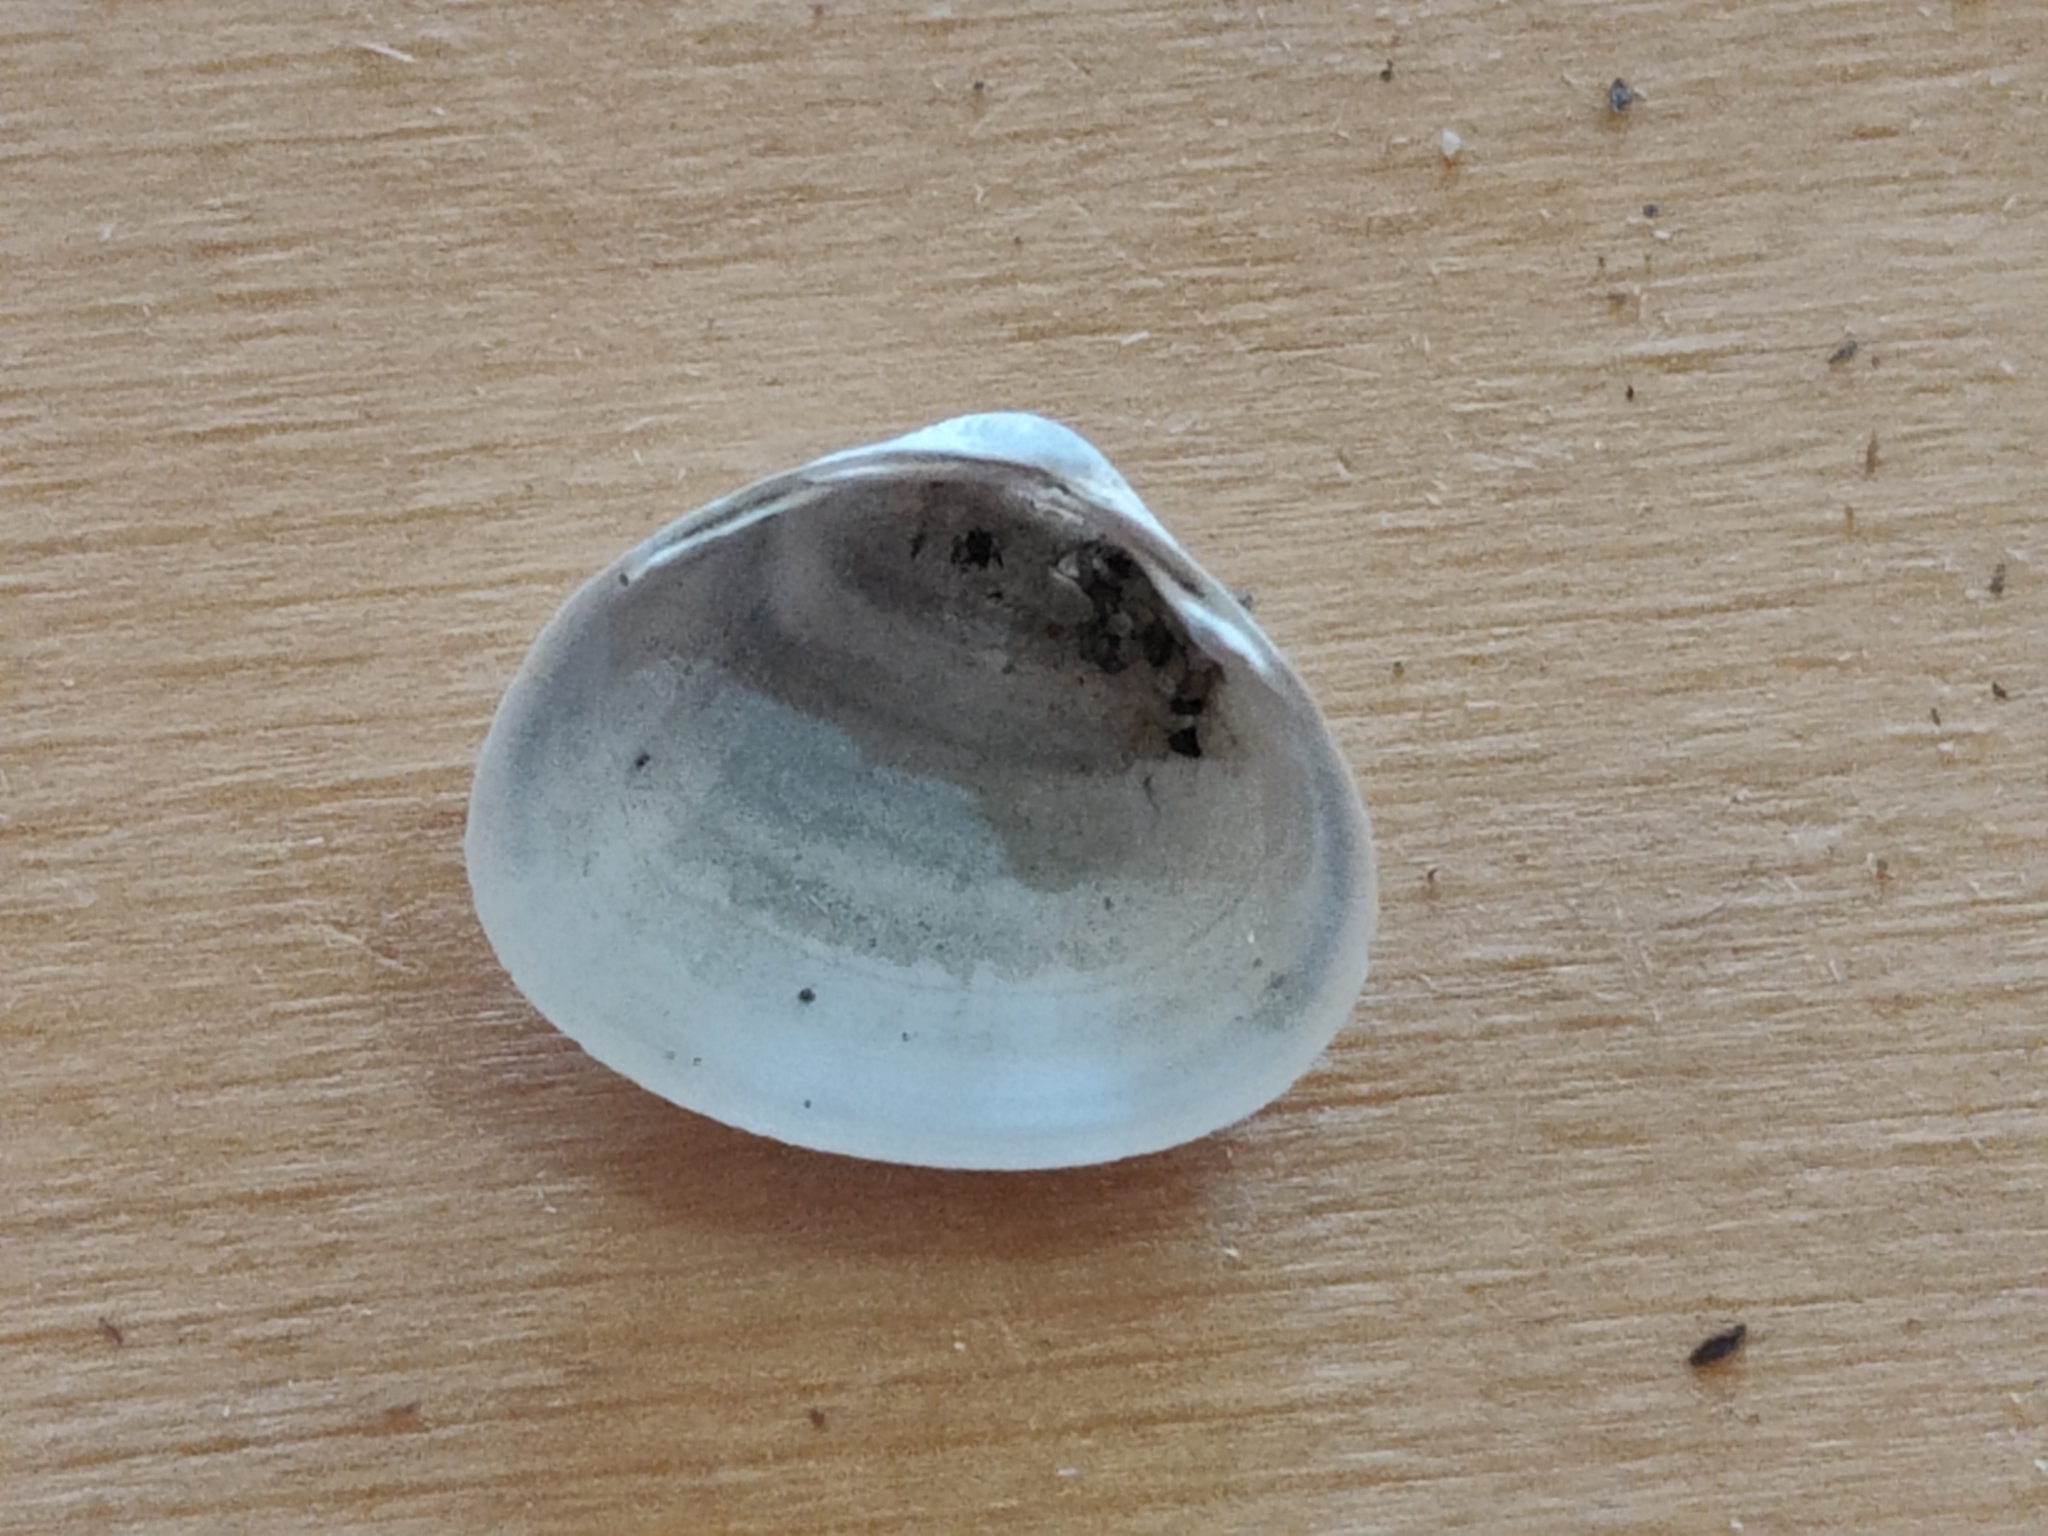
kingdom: Animalia
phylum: Mollusca
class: Bivalvia
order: Sphaeriida
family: Sphaeriidae
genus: Sphaerium
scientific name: Sphaerium striatinum
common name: Striated fingernailclam
